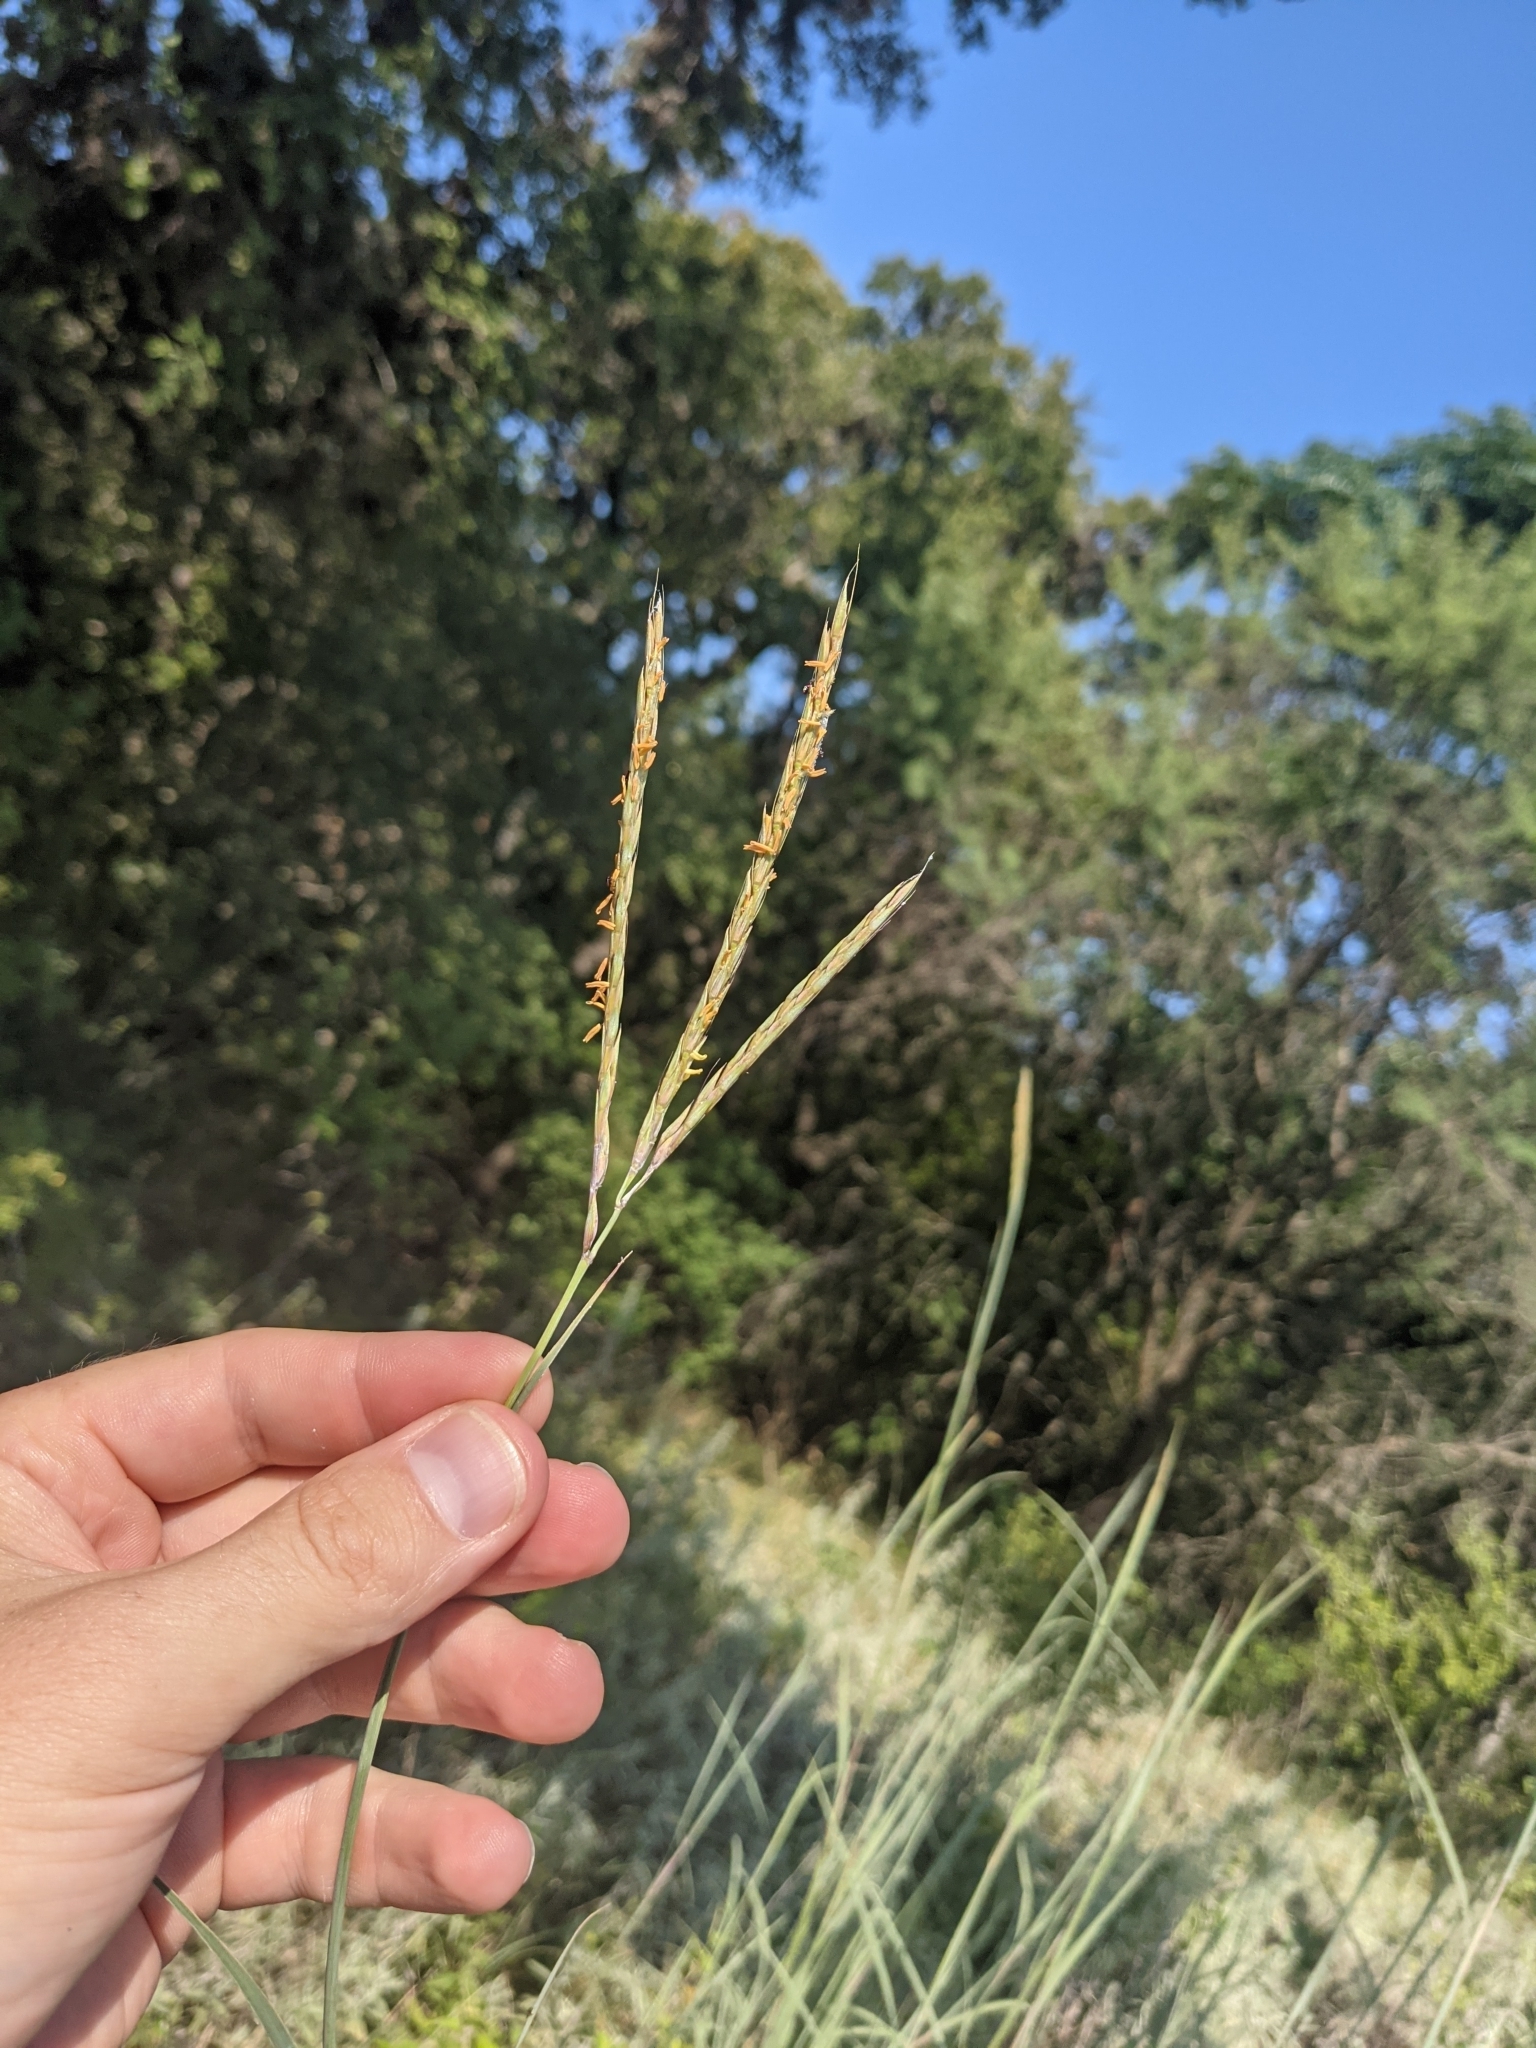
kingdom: Plantae
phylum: Tracheophyta
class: Liliopsida
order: Poales
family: Poaceae
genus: Andropogon
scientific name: Andropogon gerardi
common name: Big bluestem
